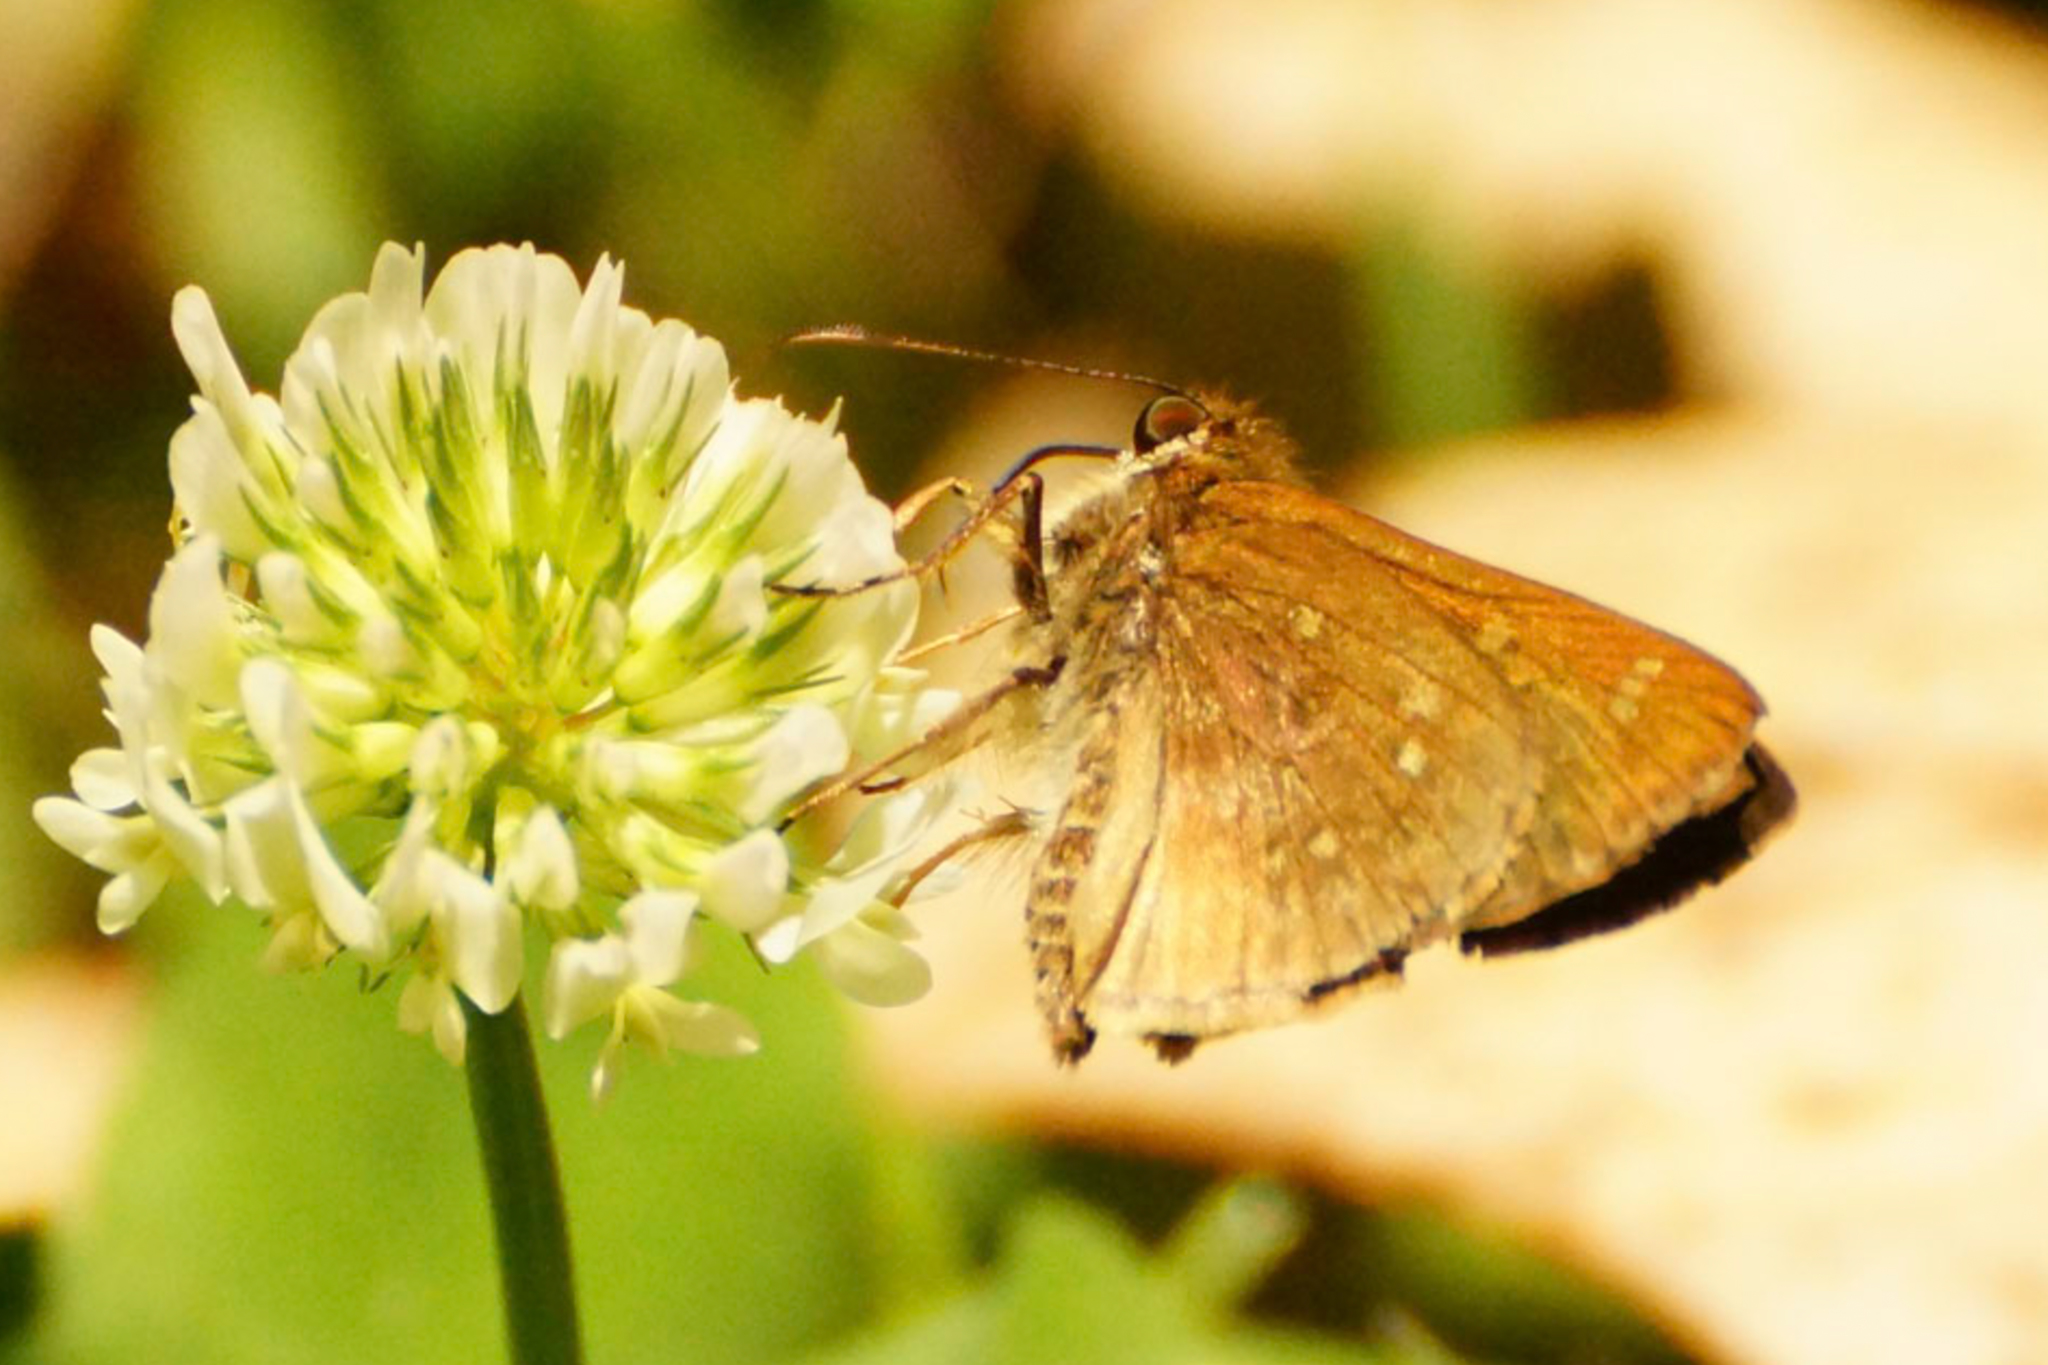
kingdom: Animalia
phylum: Arthropoda
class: Insecta
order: Lepidoptera
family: Hesperiidae
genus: Toxidia
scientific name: Toxidia
